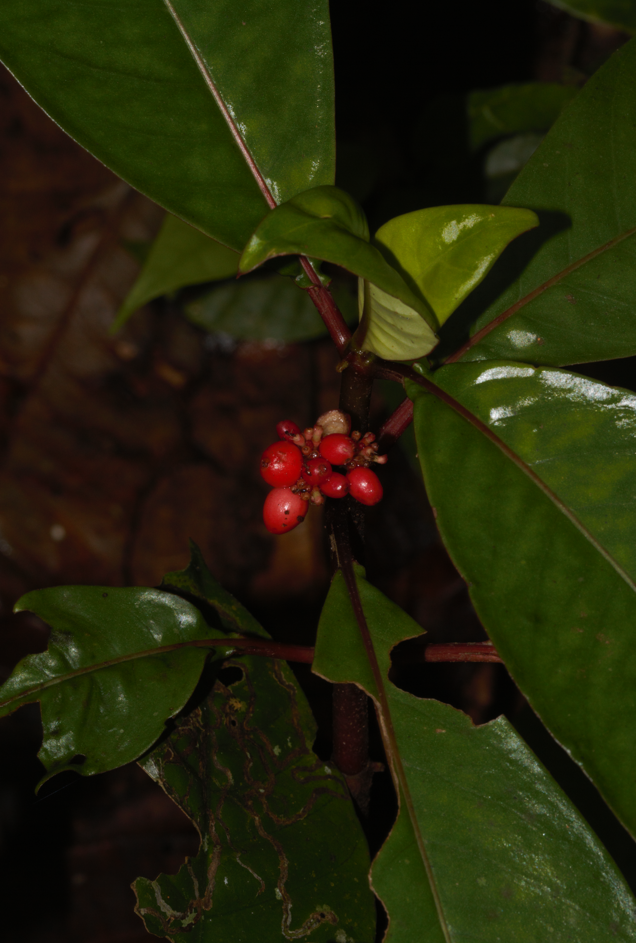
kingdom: Plantae
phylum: Tracheophyta
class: Magnoliopsida
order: Gentianales
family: Rubiaceae
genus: Notopleura
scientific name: Notopleura uliginosa
